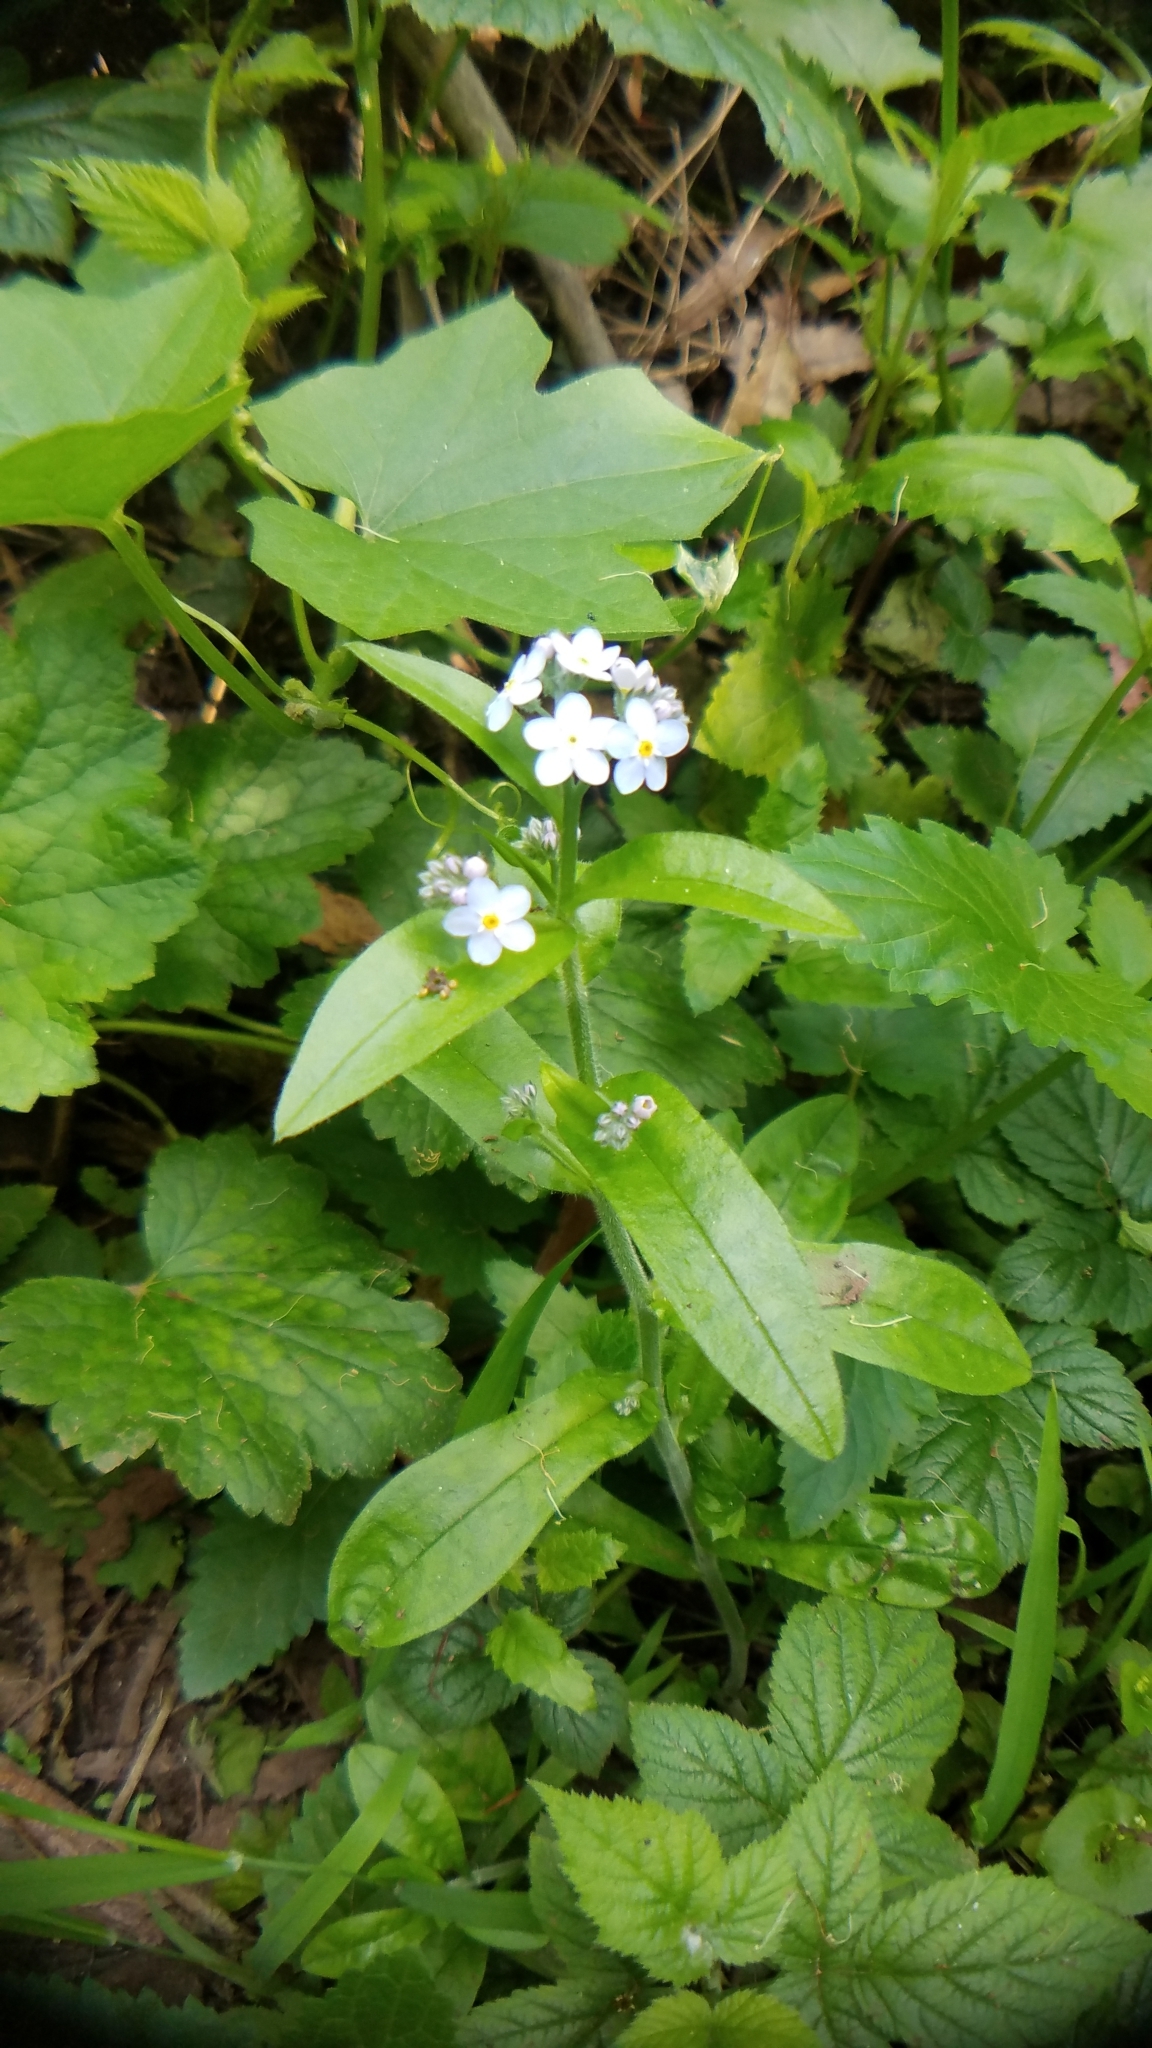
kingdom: Plantae
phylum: Tracheophyta
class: Magnoliopsida
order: Boraginales
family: Boraginaceae
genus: Myosotis
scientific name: Myosotis latifolia
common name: Broadleaf forget-me-not
